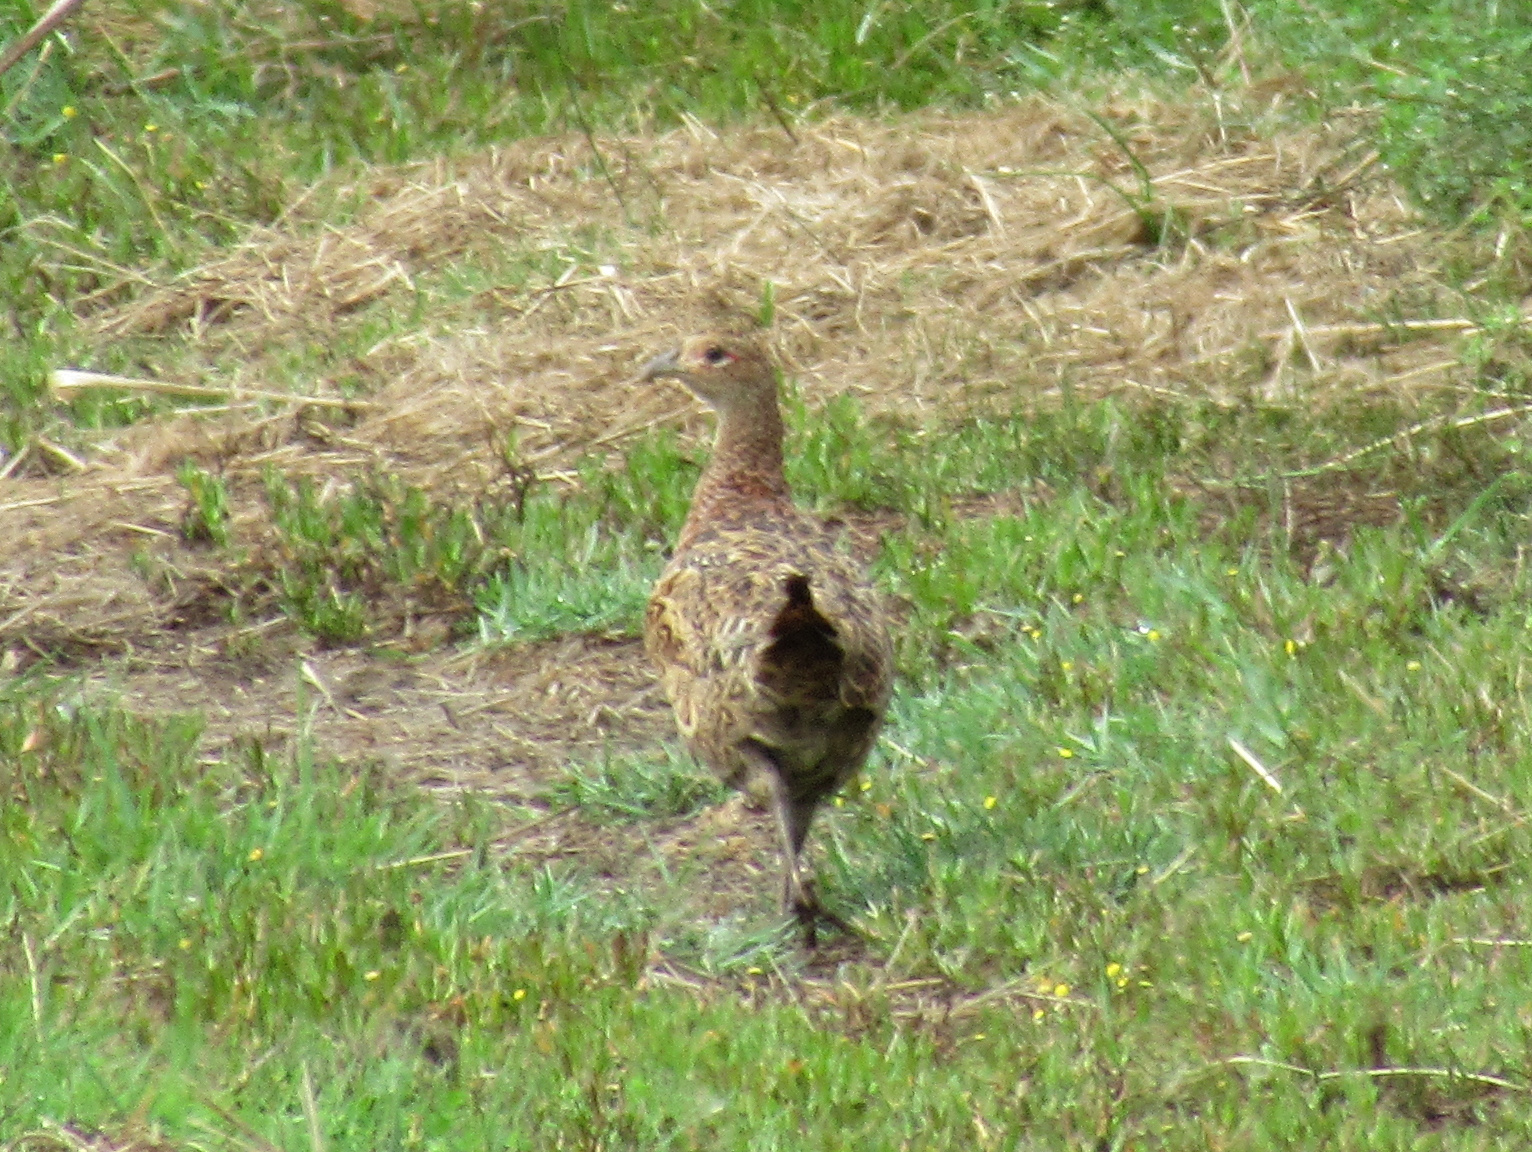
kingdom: Animalia
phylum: Chordata
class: Aves
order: Galliformes
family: Phasianidae
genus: Phasianus
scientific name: Phasianus colchicus
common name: Common pheasant
